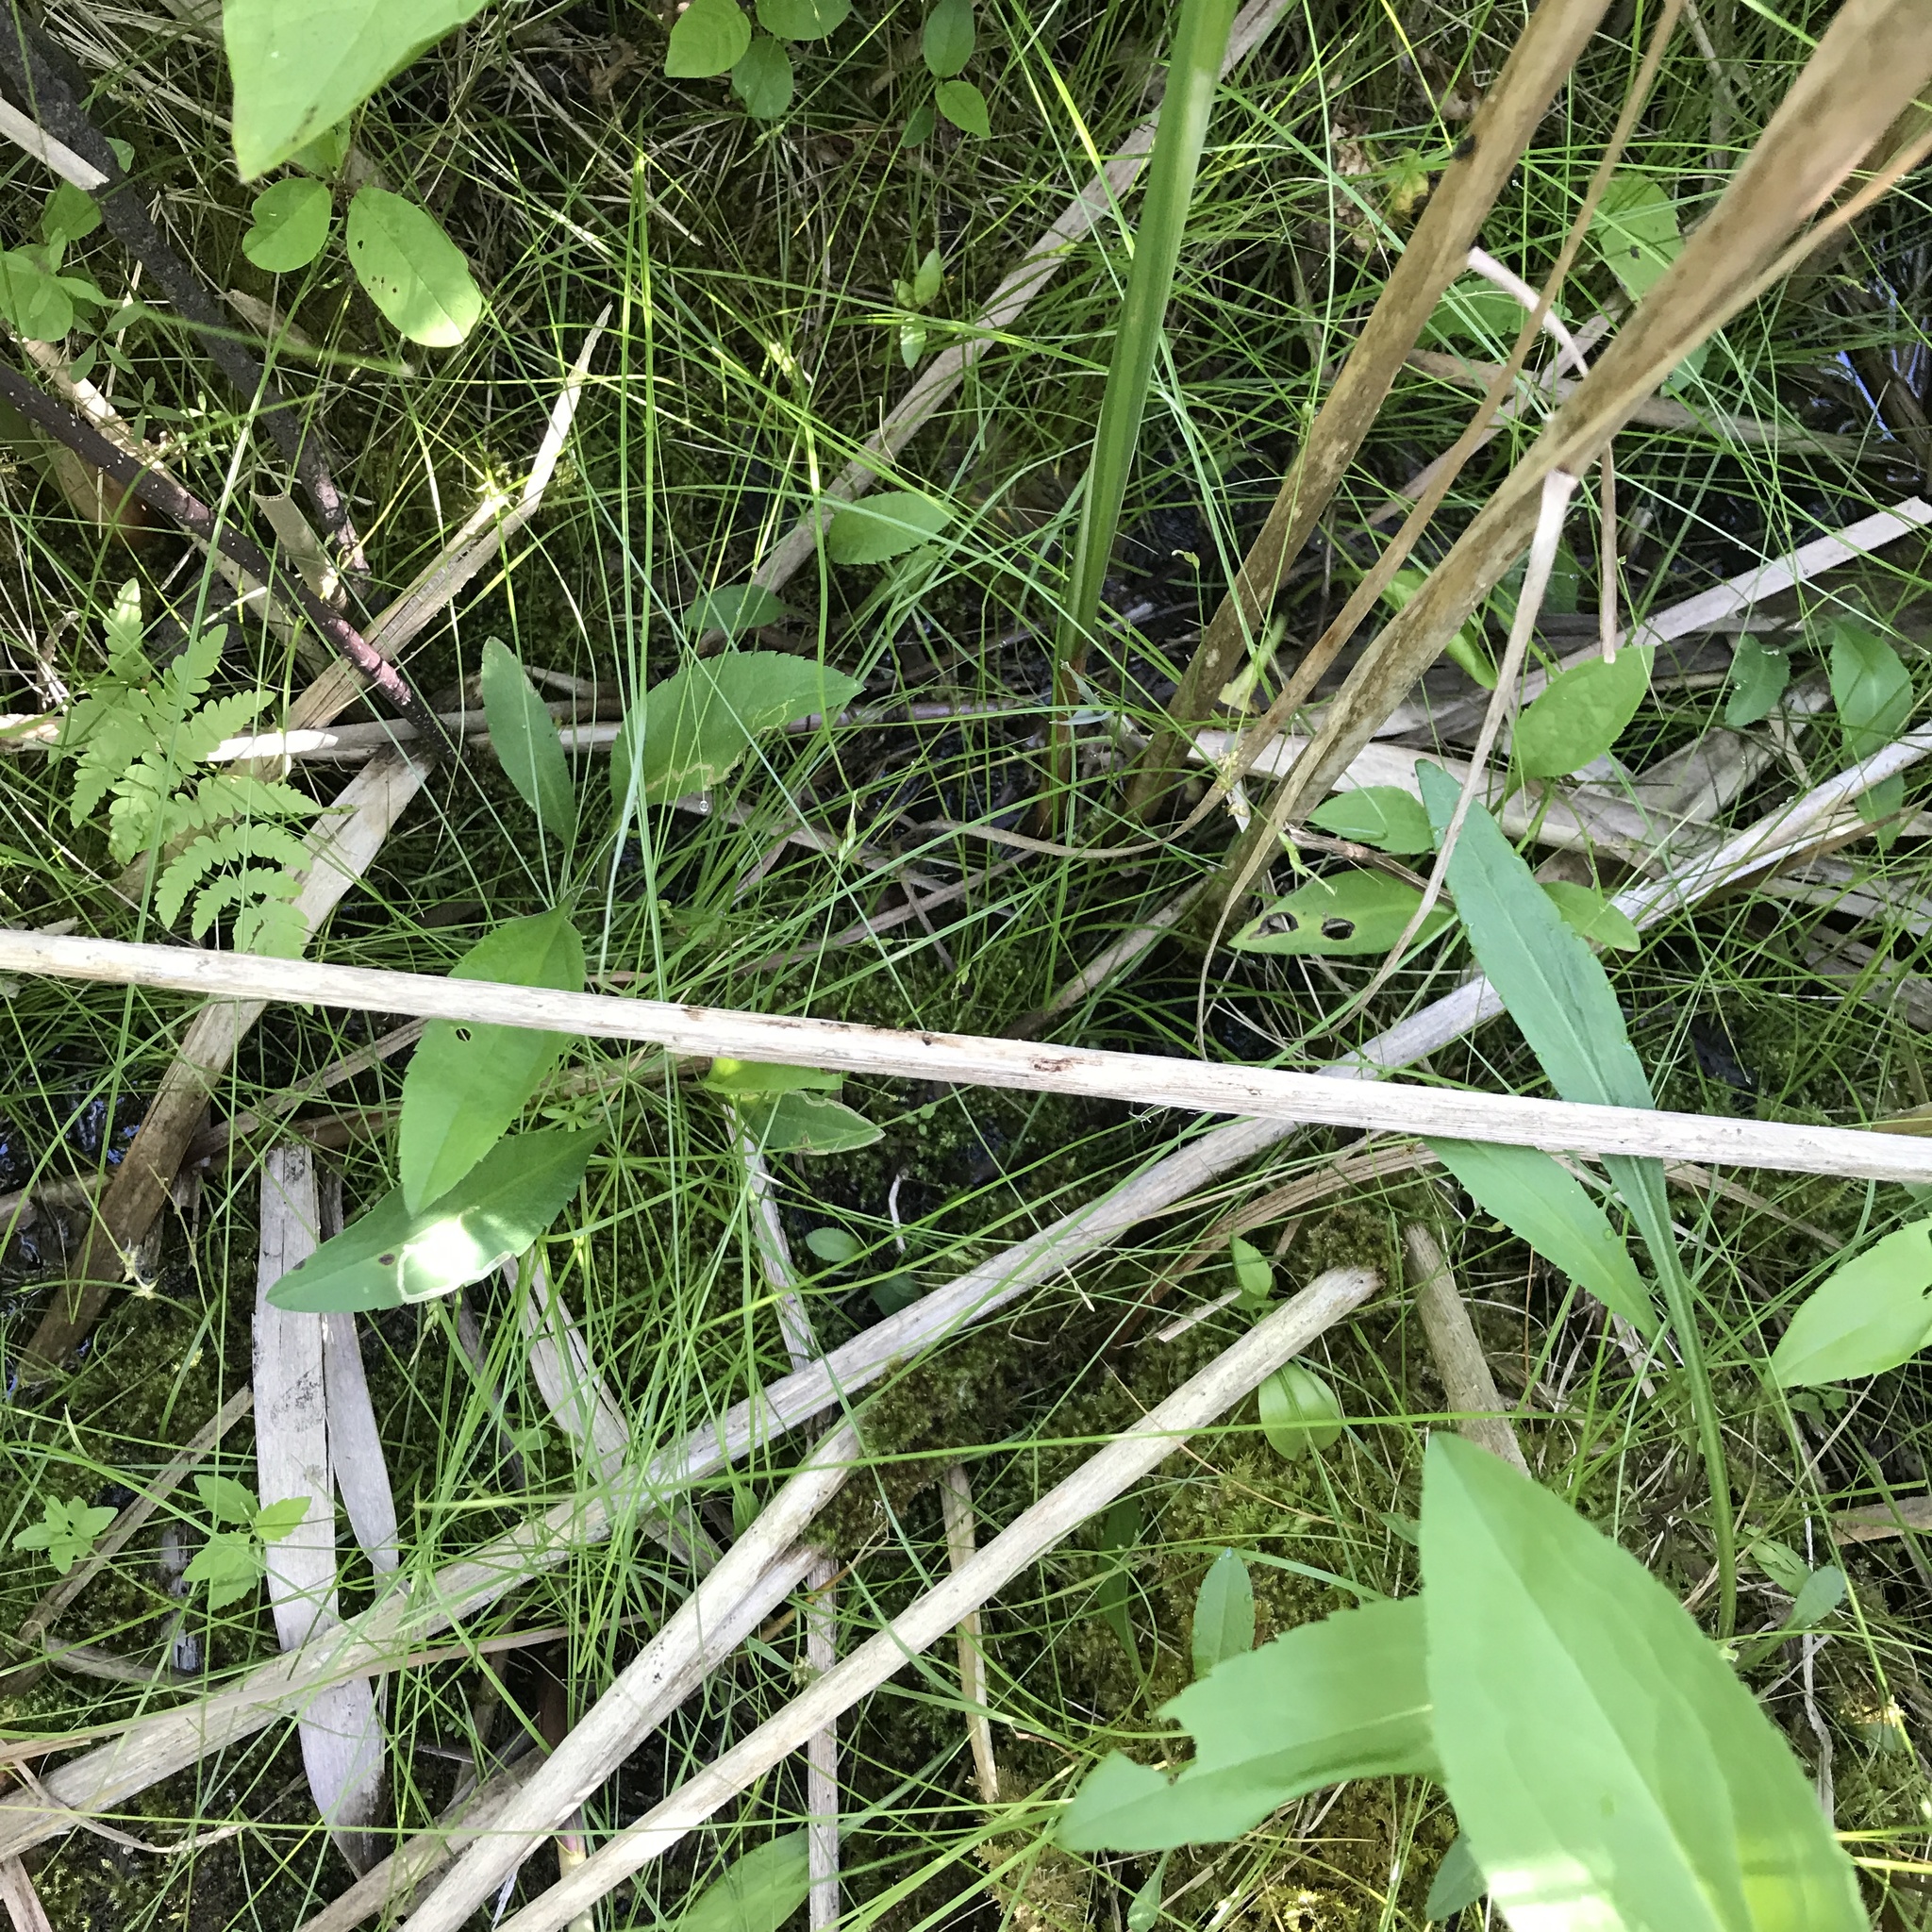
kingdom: Plantae
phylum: Tracheophyta
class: Liliopsida
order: Poales
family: Cyperaceae
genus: Carex
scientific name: Carex leptalea
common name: Bristly-stalked sedge
